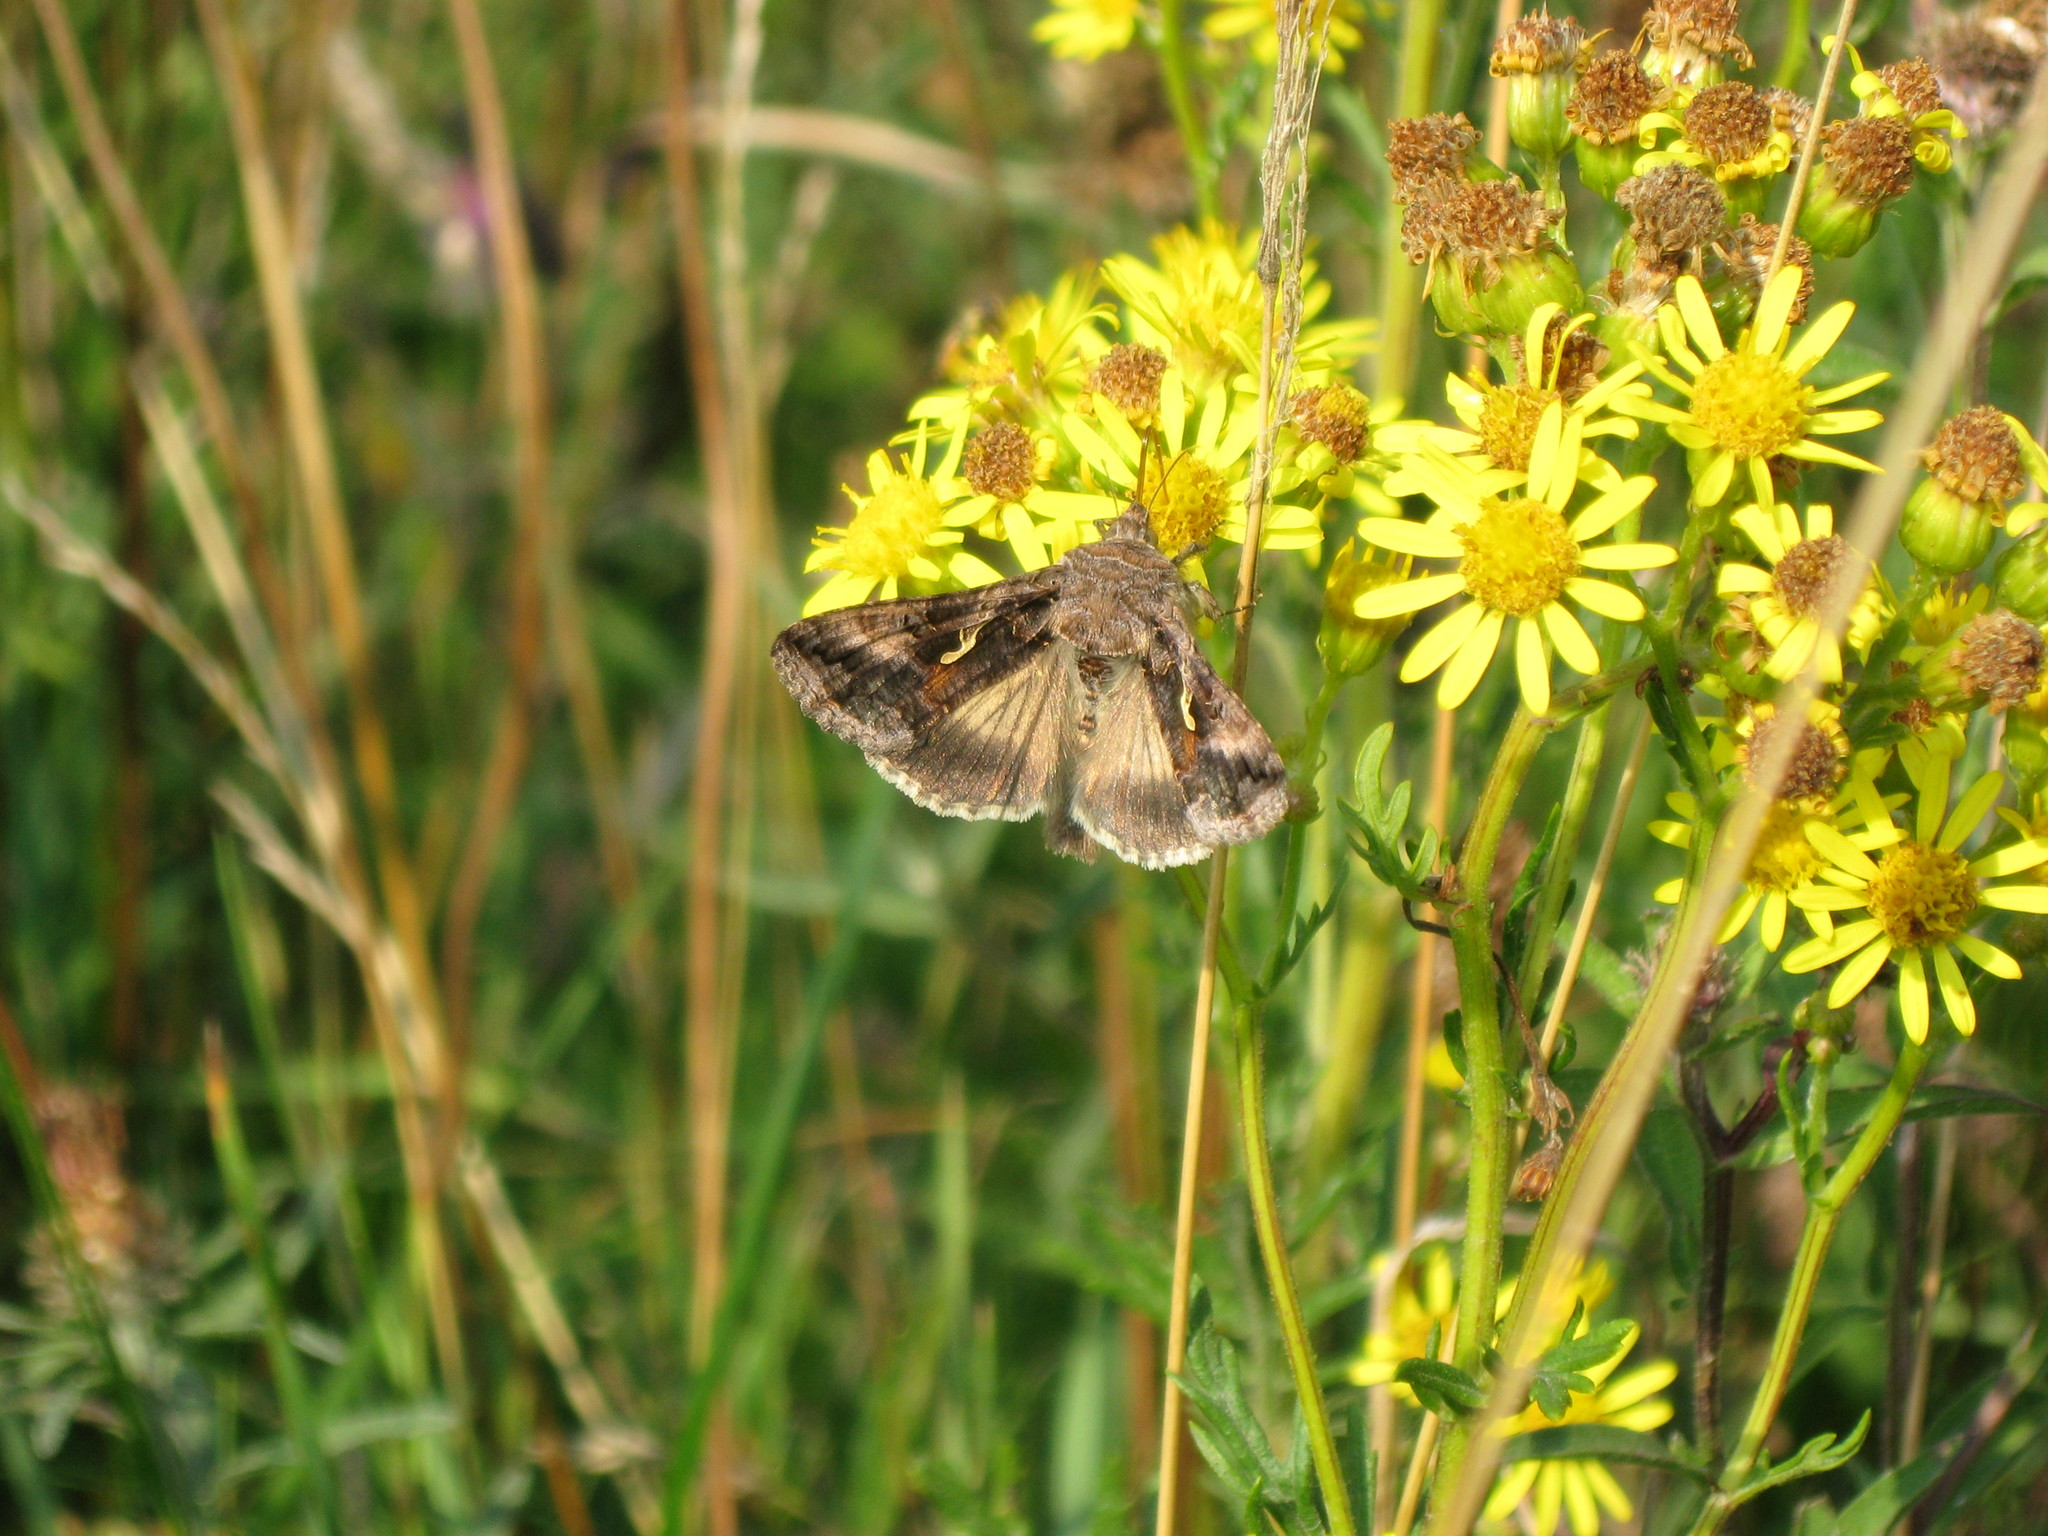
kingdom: Animalia
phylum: Arthropoda
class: Insecta
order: Lepidoptera
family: Noctuidae
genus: Autographa
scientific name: Autographa gamma
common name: Silver y
